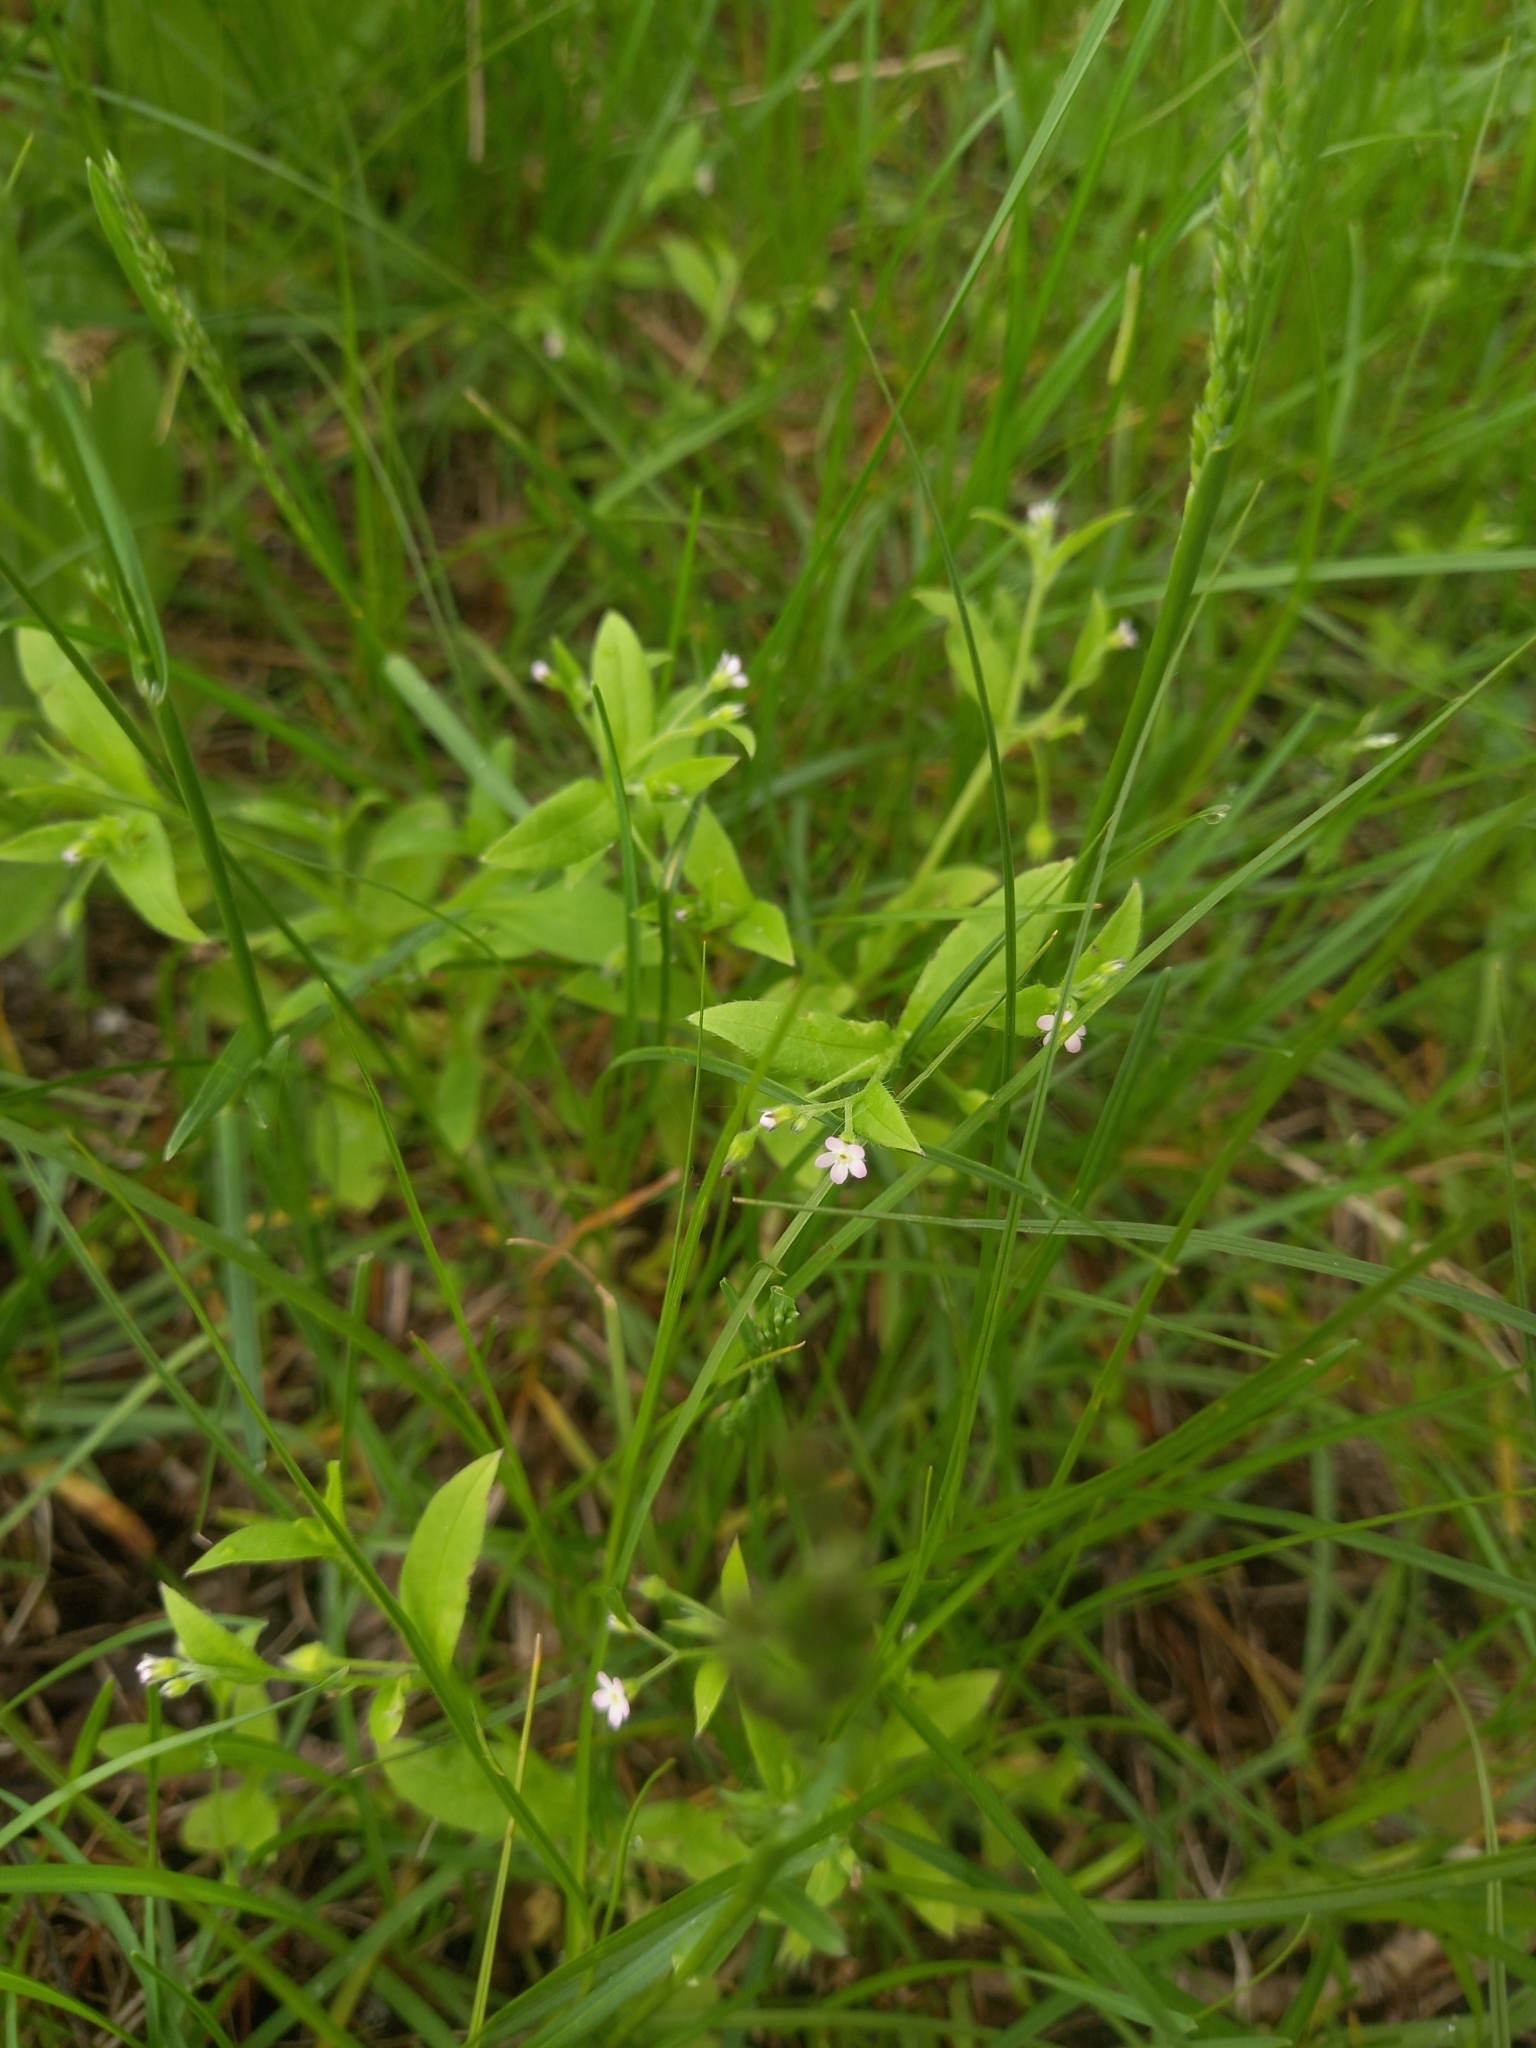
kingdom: Plantae
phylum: Tracheophyta
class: Magnoliopsida
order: Boraginales
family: Boraginaceae
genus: Myosotis
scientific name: Myosotis sparsiflora
